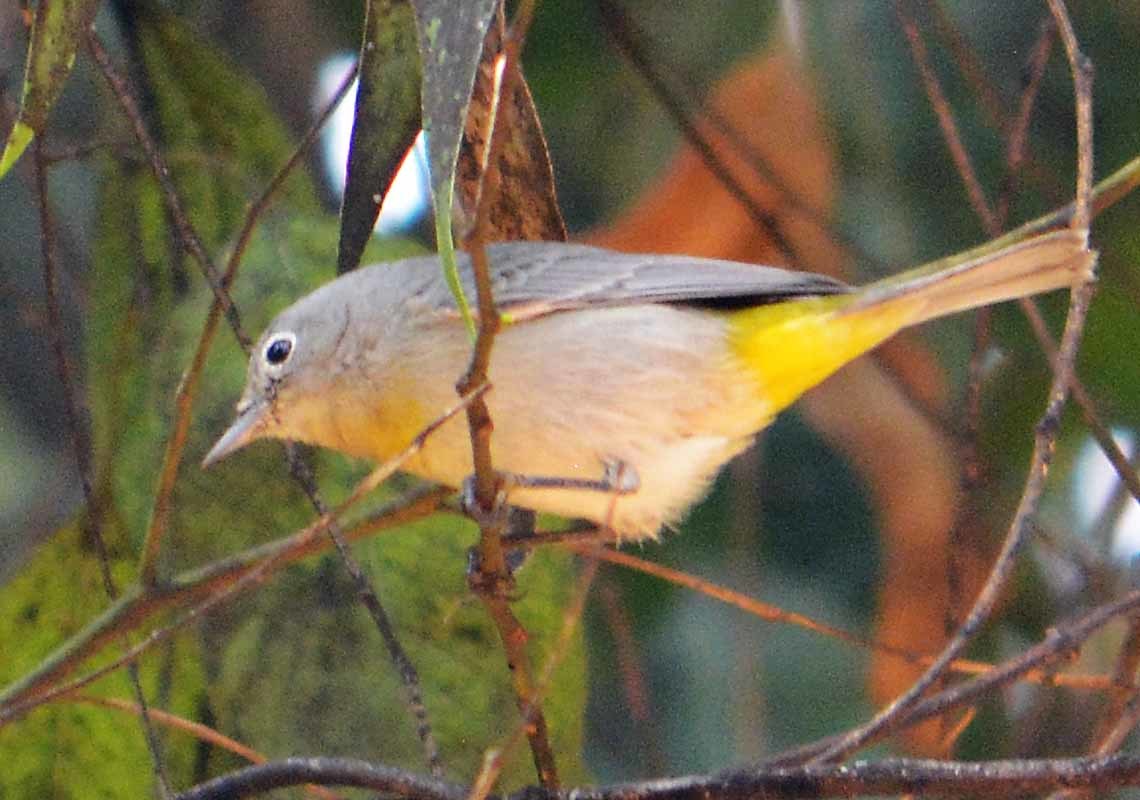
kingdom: Animalia
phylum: Chordata
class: Aves
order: Passeriformes
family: Parulidae
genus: Leiothlypis
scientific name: Leiothlypis virginiae
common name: Virginia's warbler
